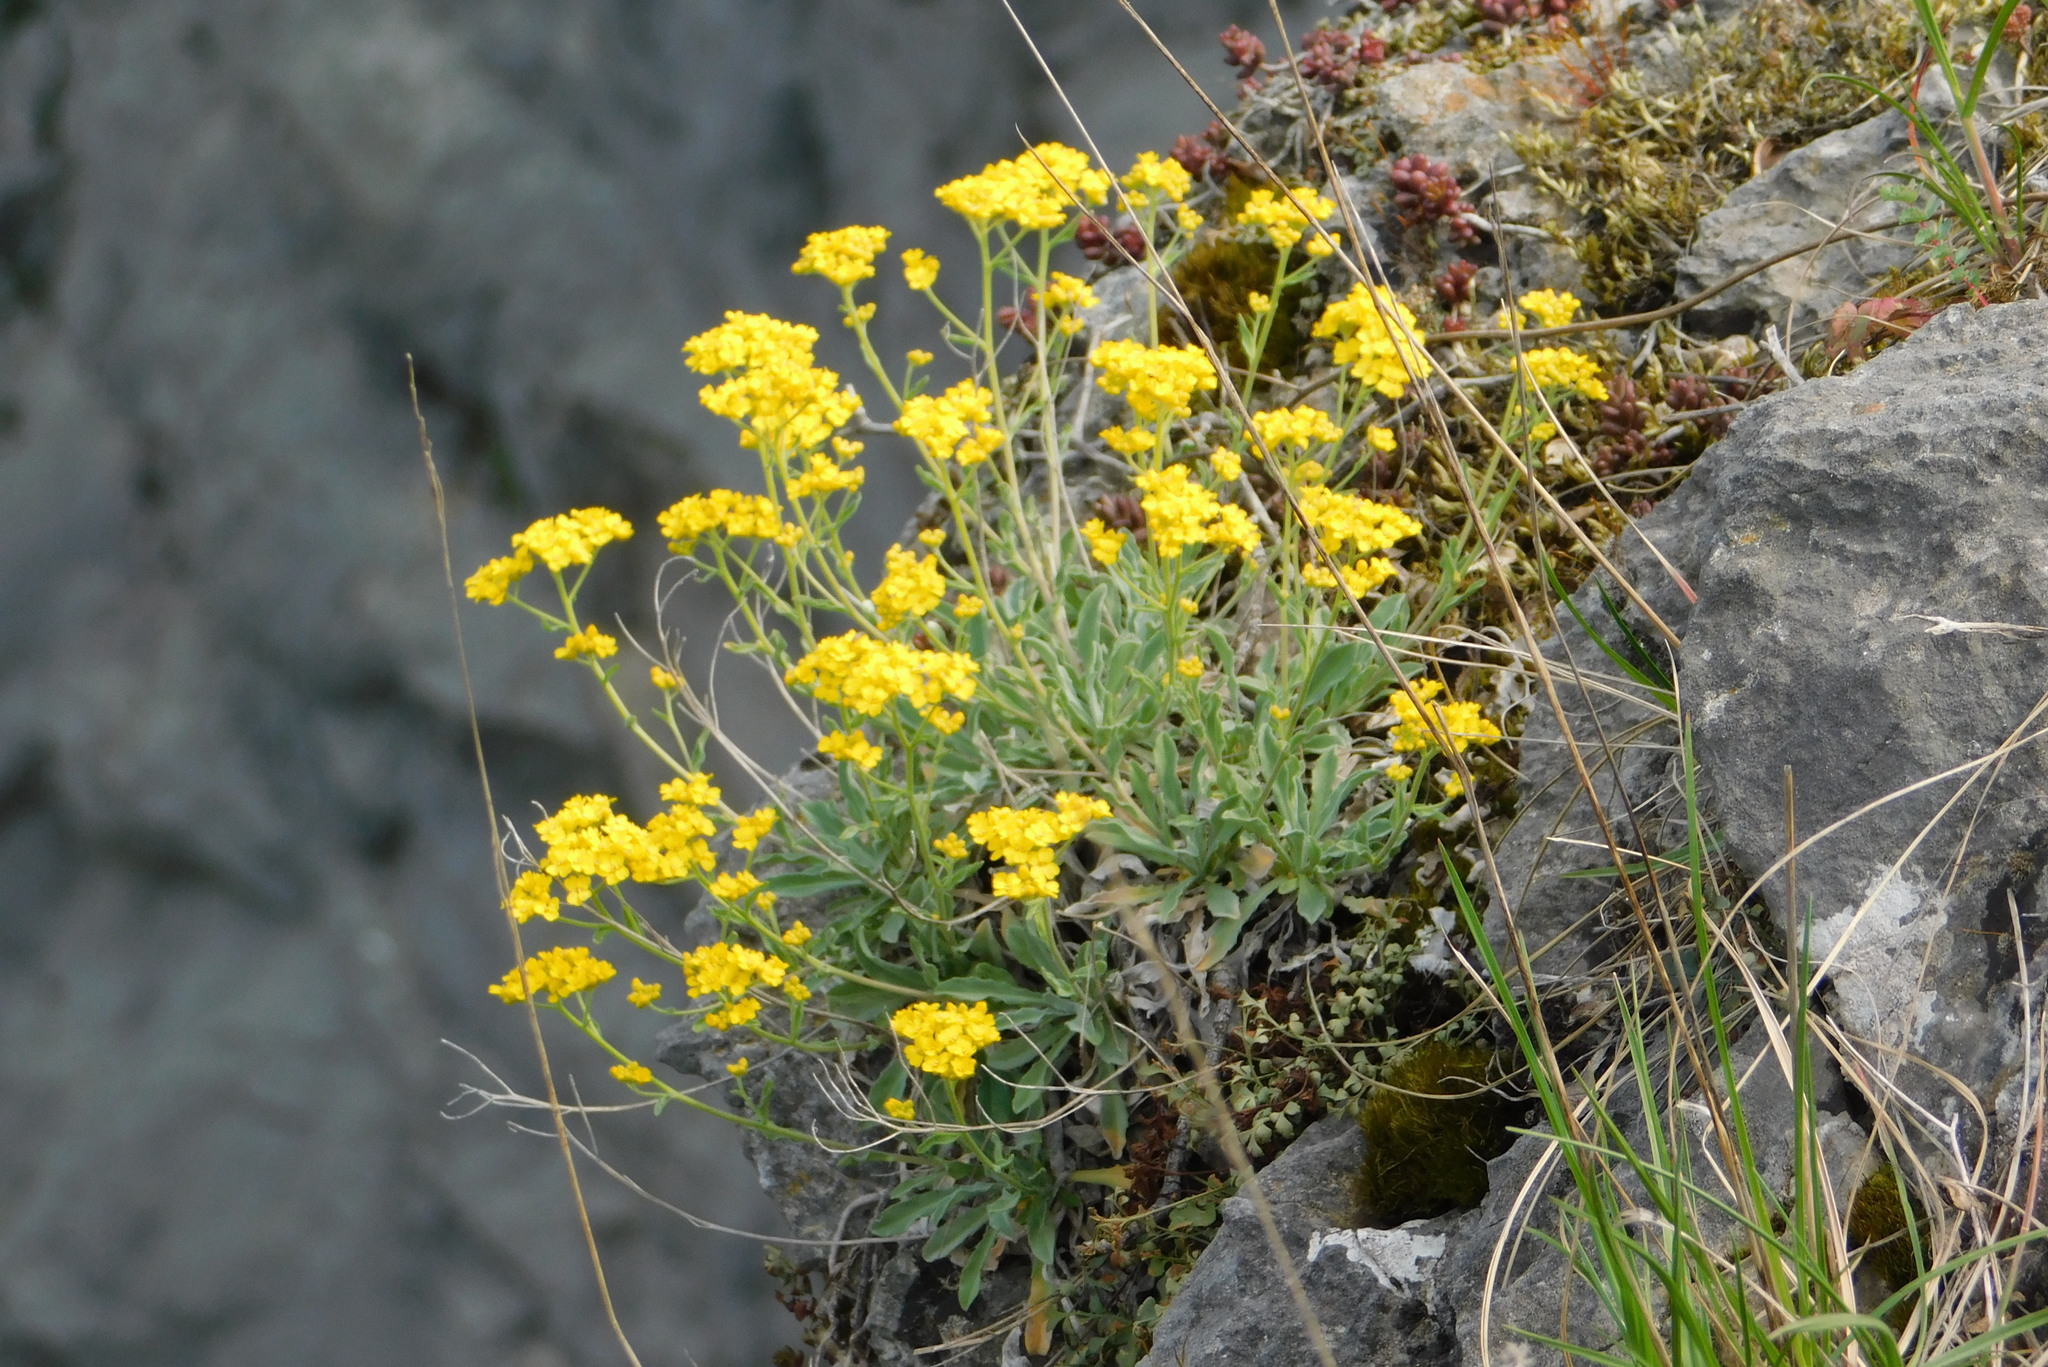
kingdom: Plantae
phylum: Tracheophyta
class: Magnoliopsida
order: Brassicales
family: Brassicaceae
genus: Aurinia
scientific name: Aurinia saxatilis
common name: Golden-tuft alyssum
